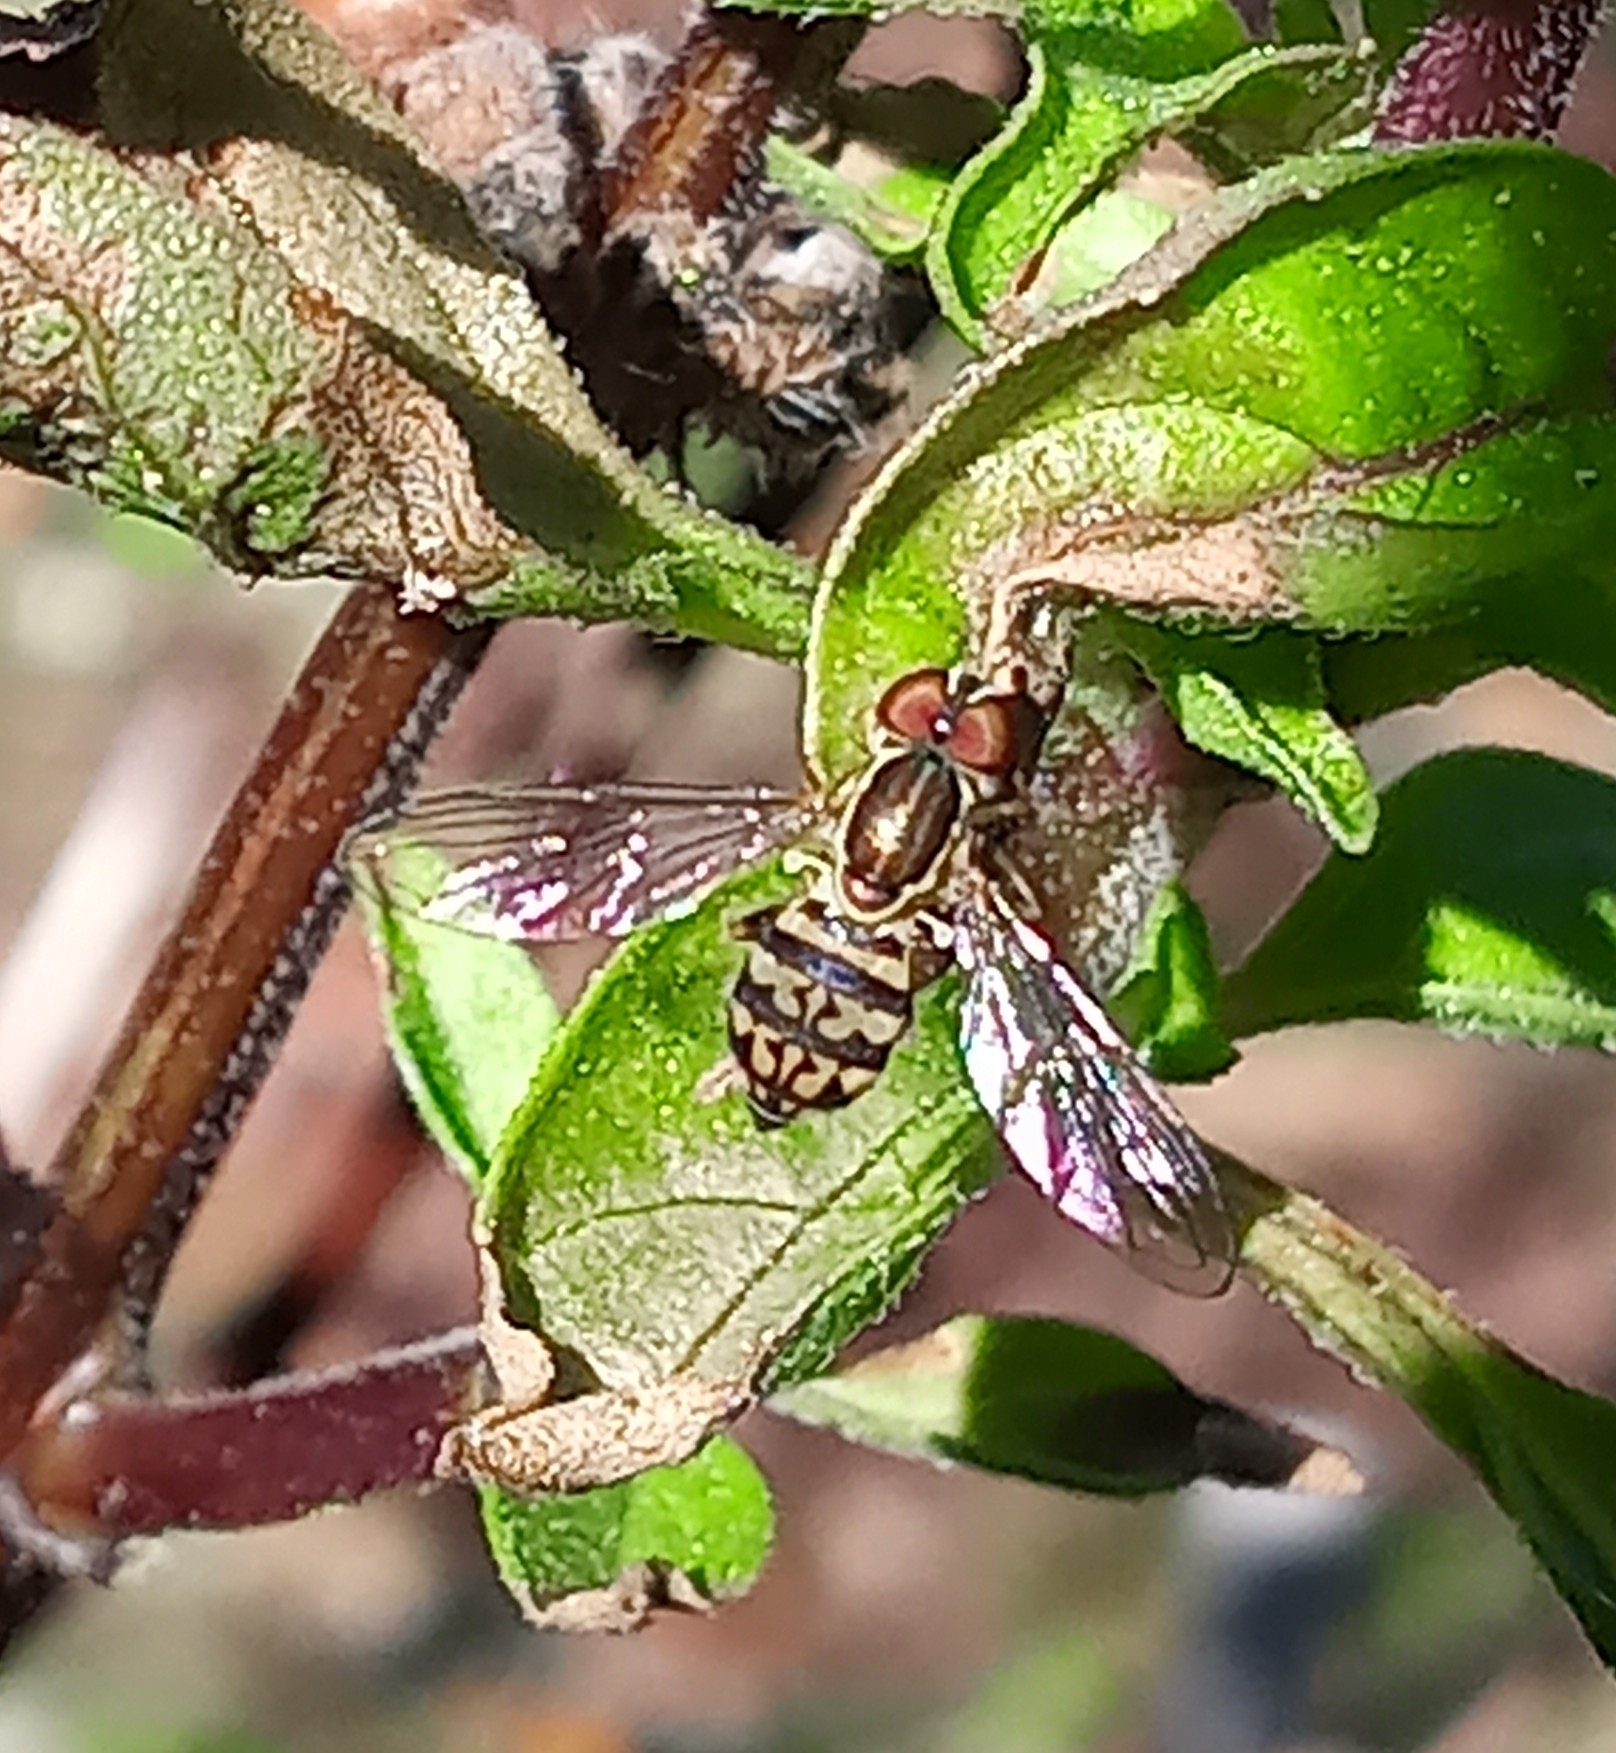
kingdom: Animalia
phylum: Arthropoda
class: Insecta
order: Diptera
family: Syrphidae
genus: Toxomerus
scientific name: Toxomerus geminatus
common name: Eastern calligrapher
